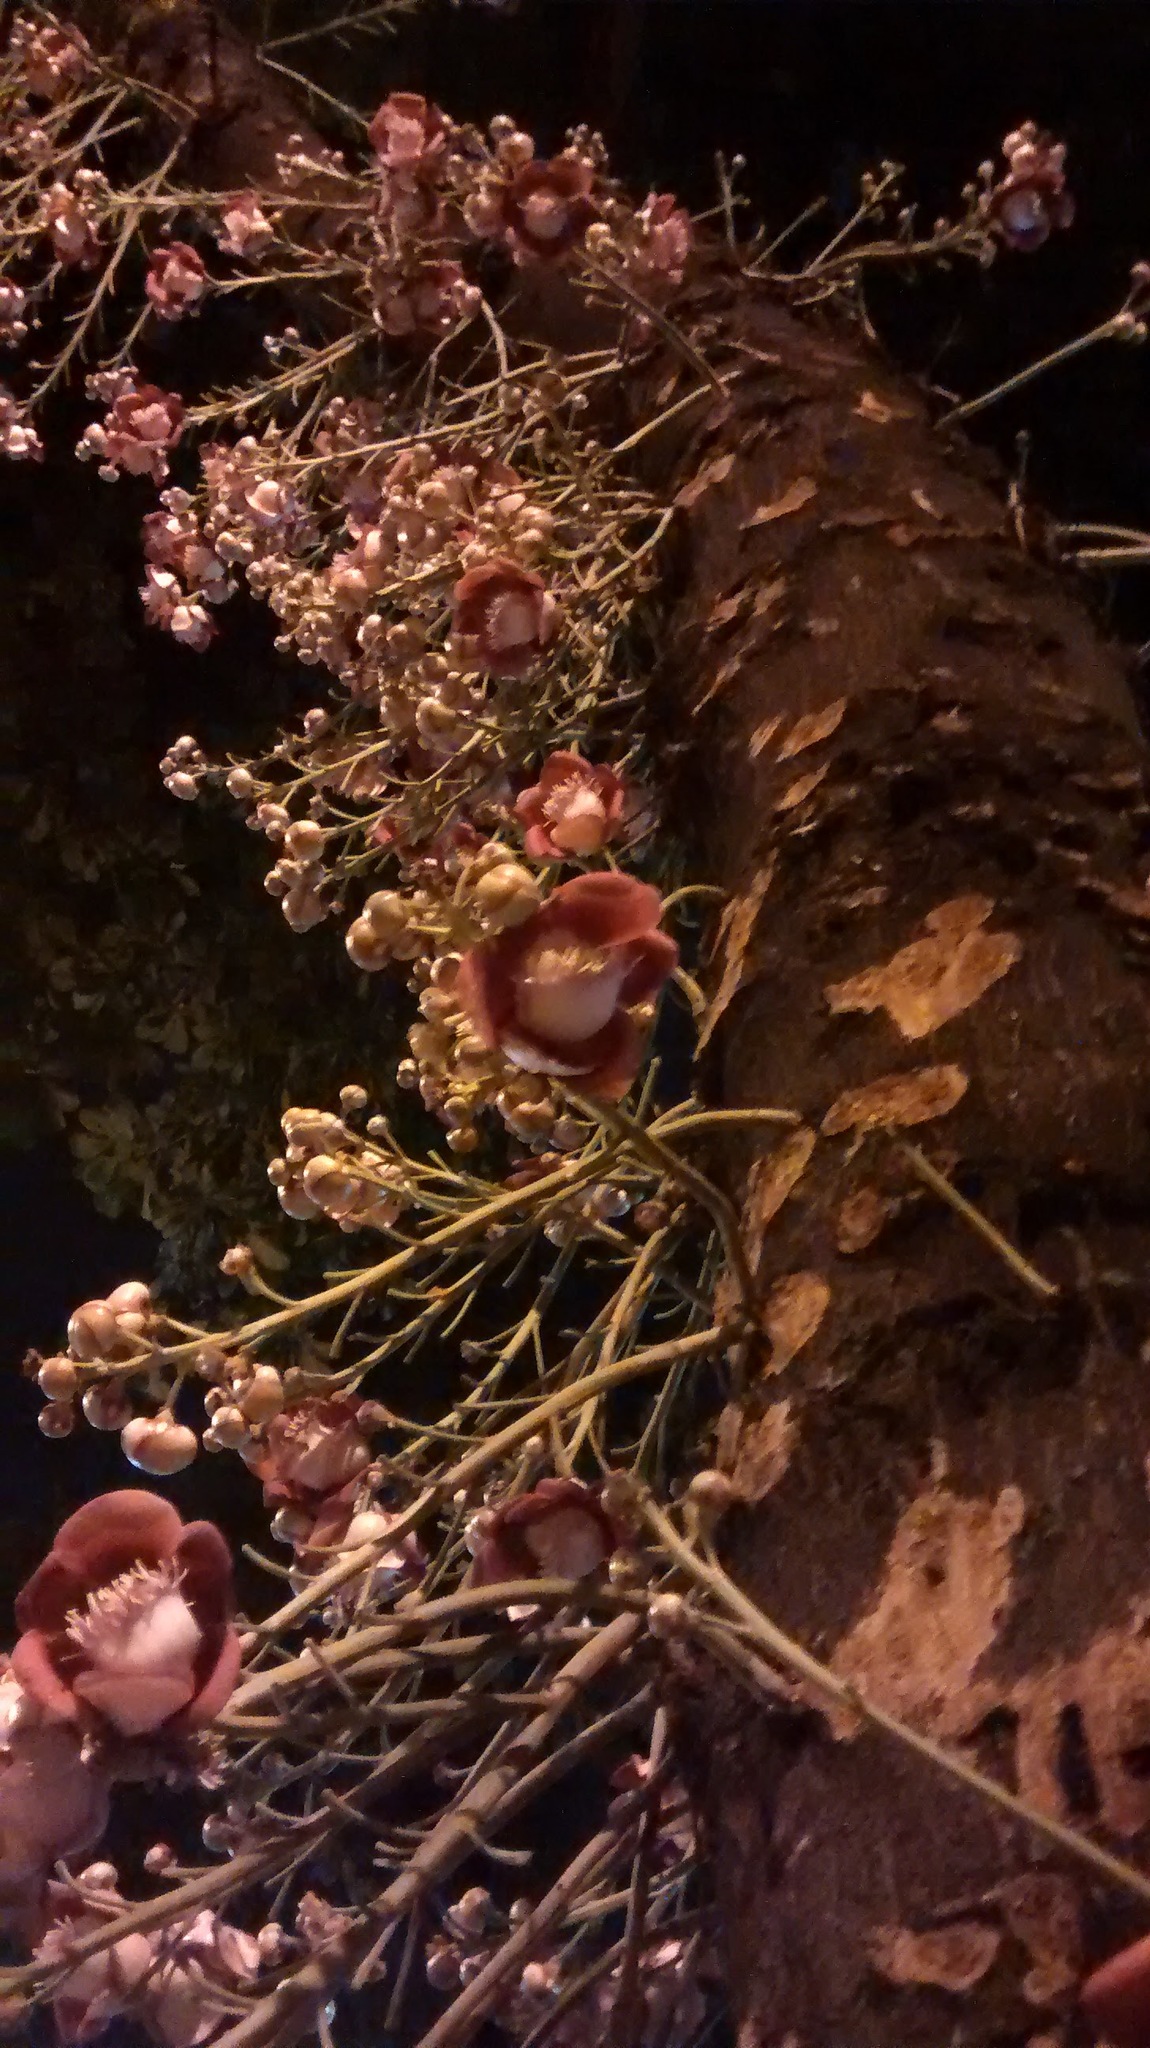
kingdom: Plantae
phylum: Tracheophyta
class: Magnoliopsida
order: Ericales
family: Lecythidaceae
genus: Couroupita
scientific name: Couroupita guianensis
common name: Cannonball tree
